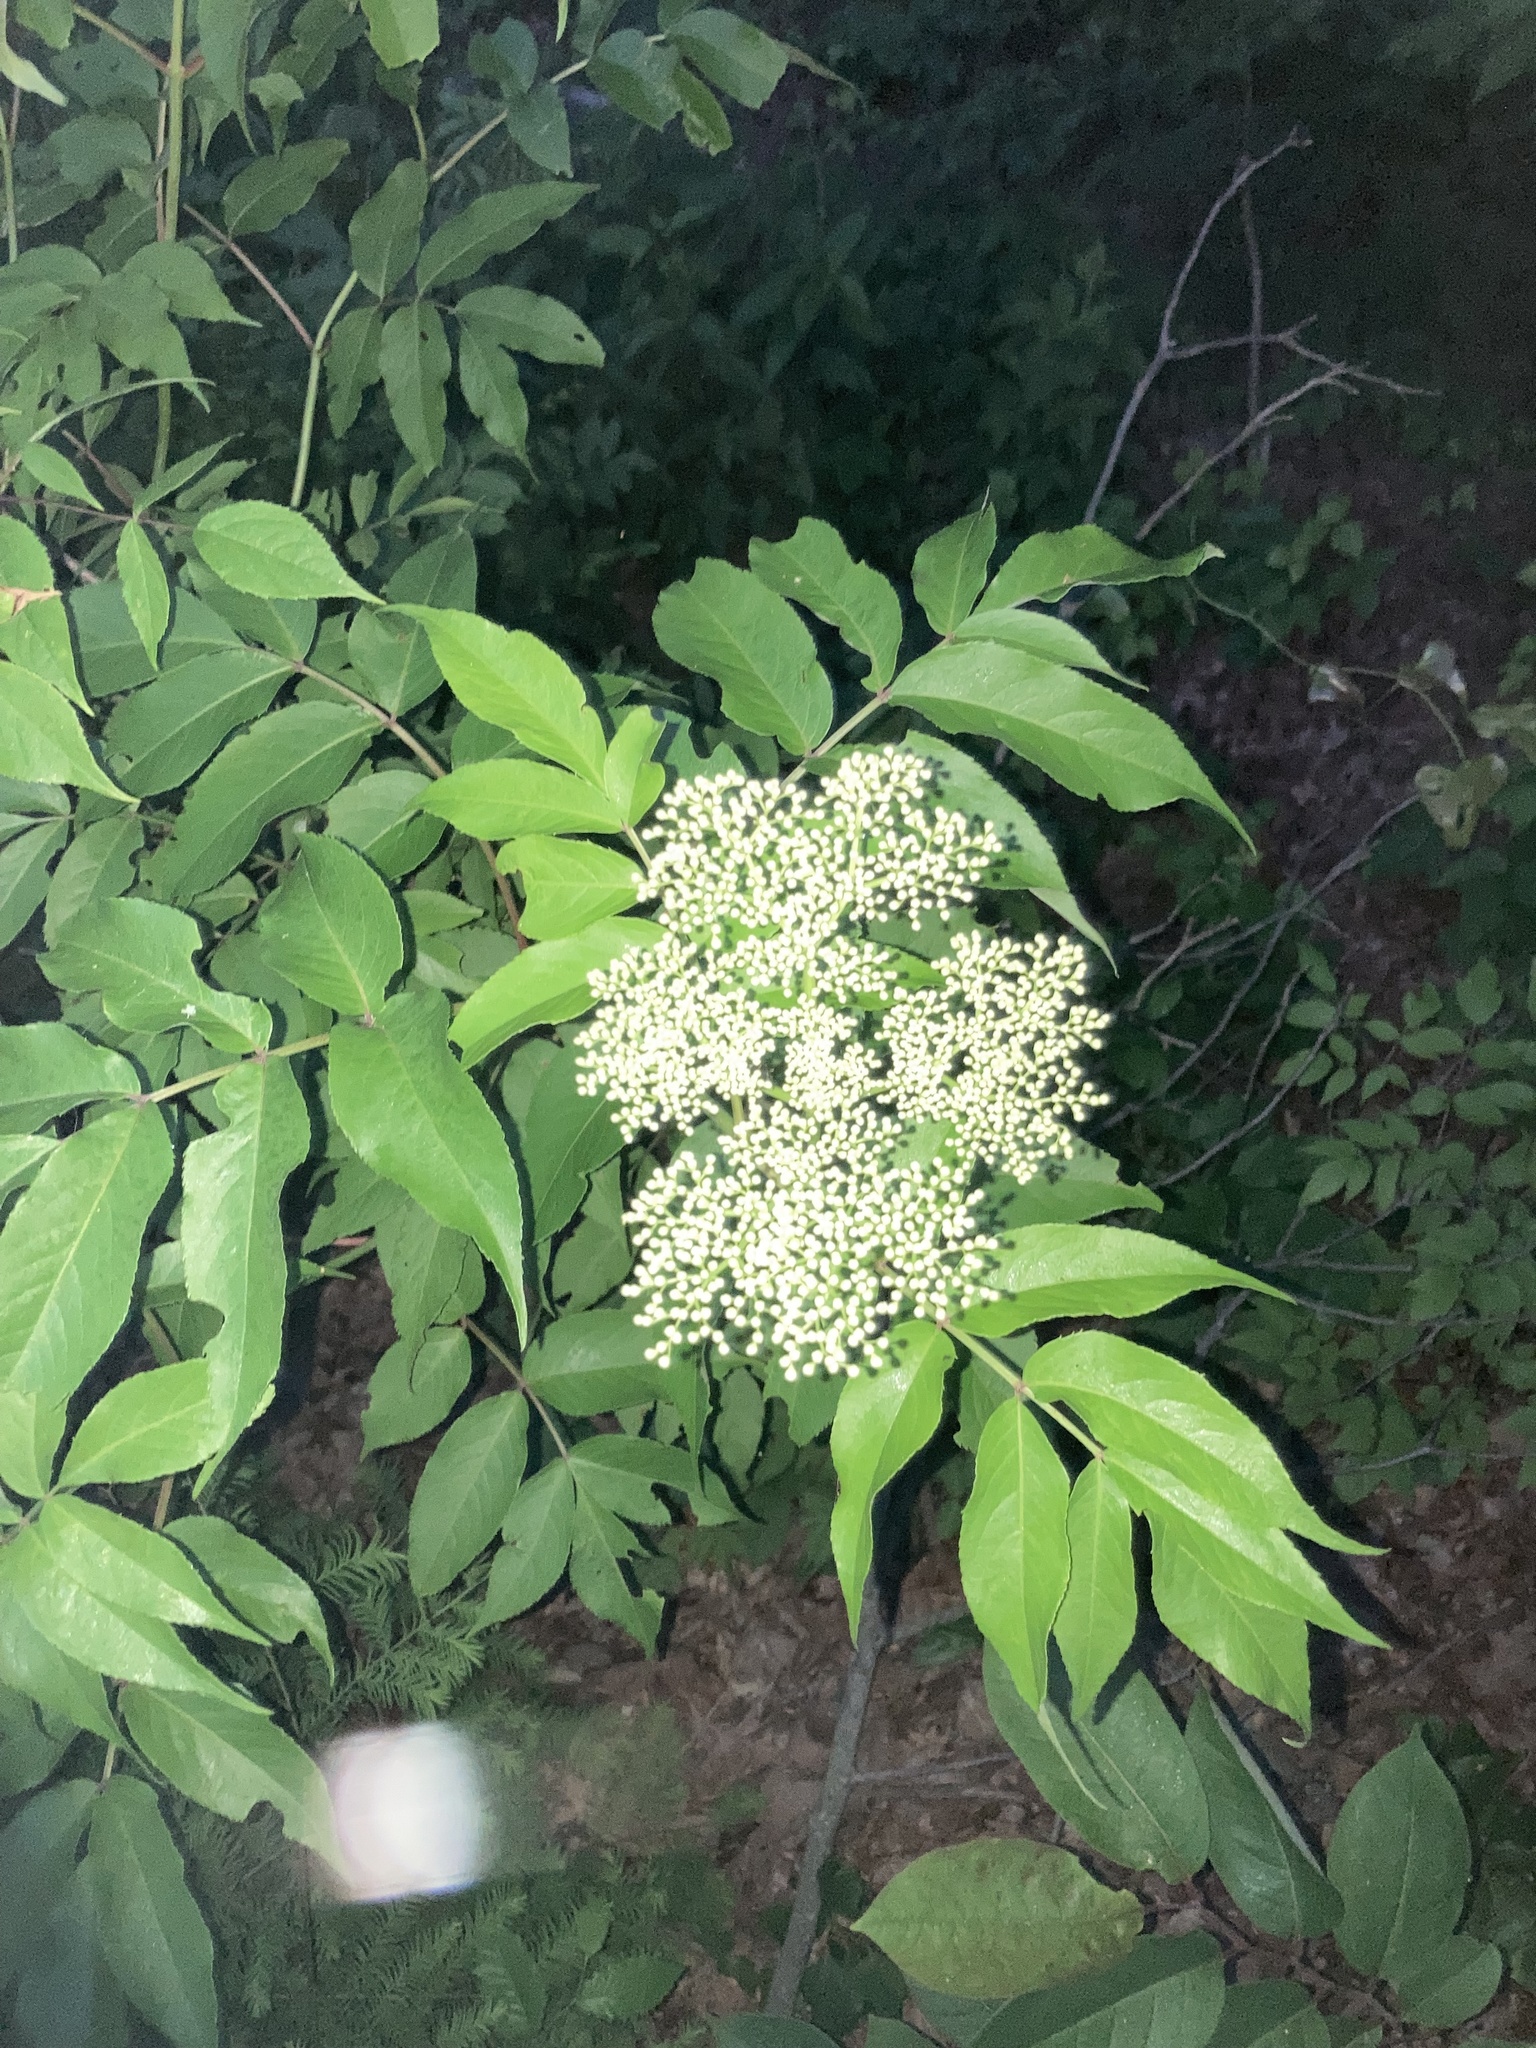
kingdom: Plantae
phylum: Tracheophyta
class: Magnoliopsida
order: Dipsacales
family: Viburnaceae
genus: Sambucus
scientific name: Sambucus canadensis
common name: American elder
